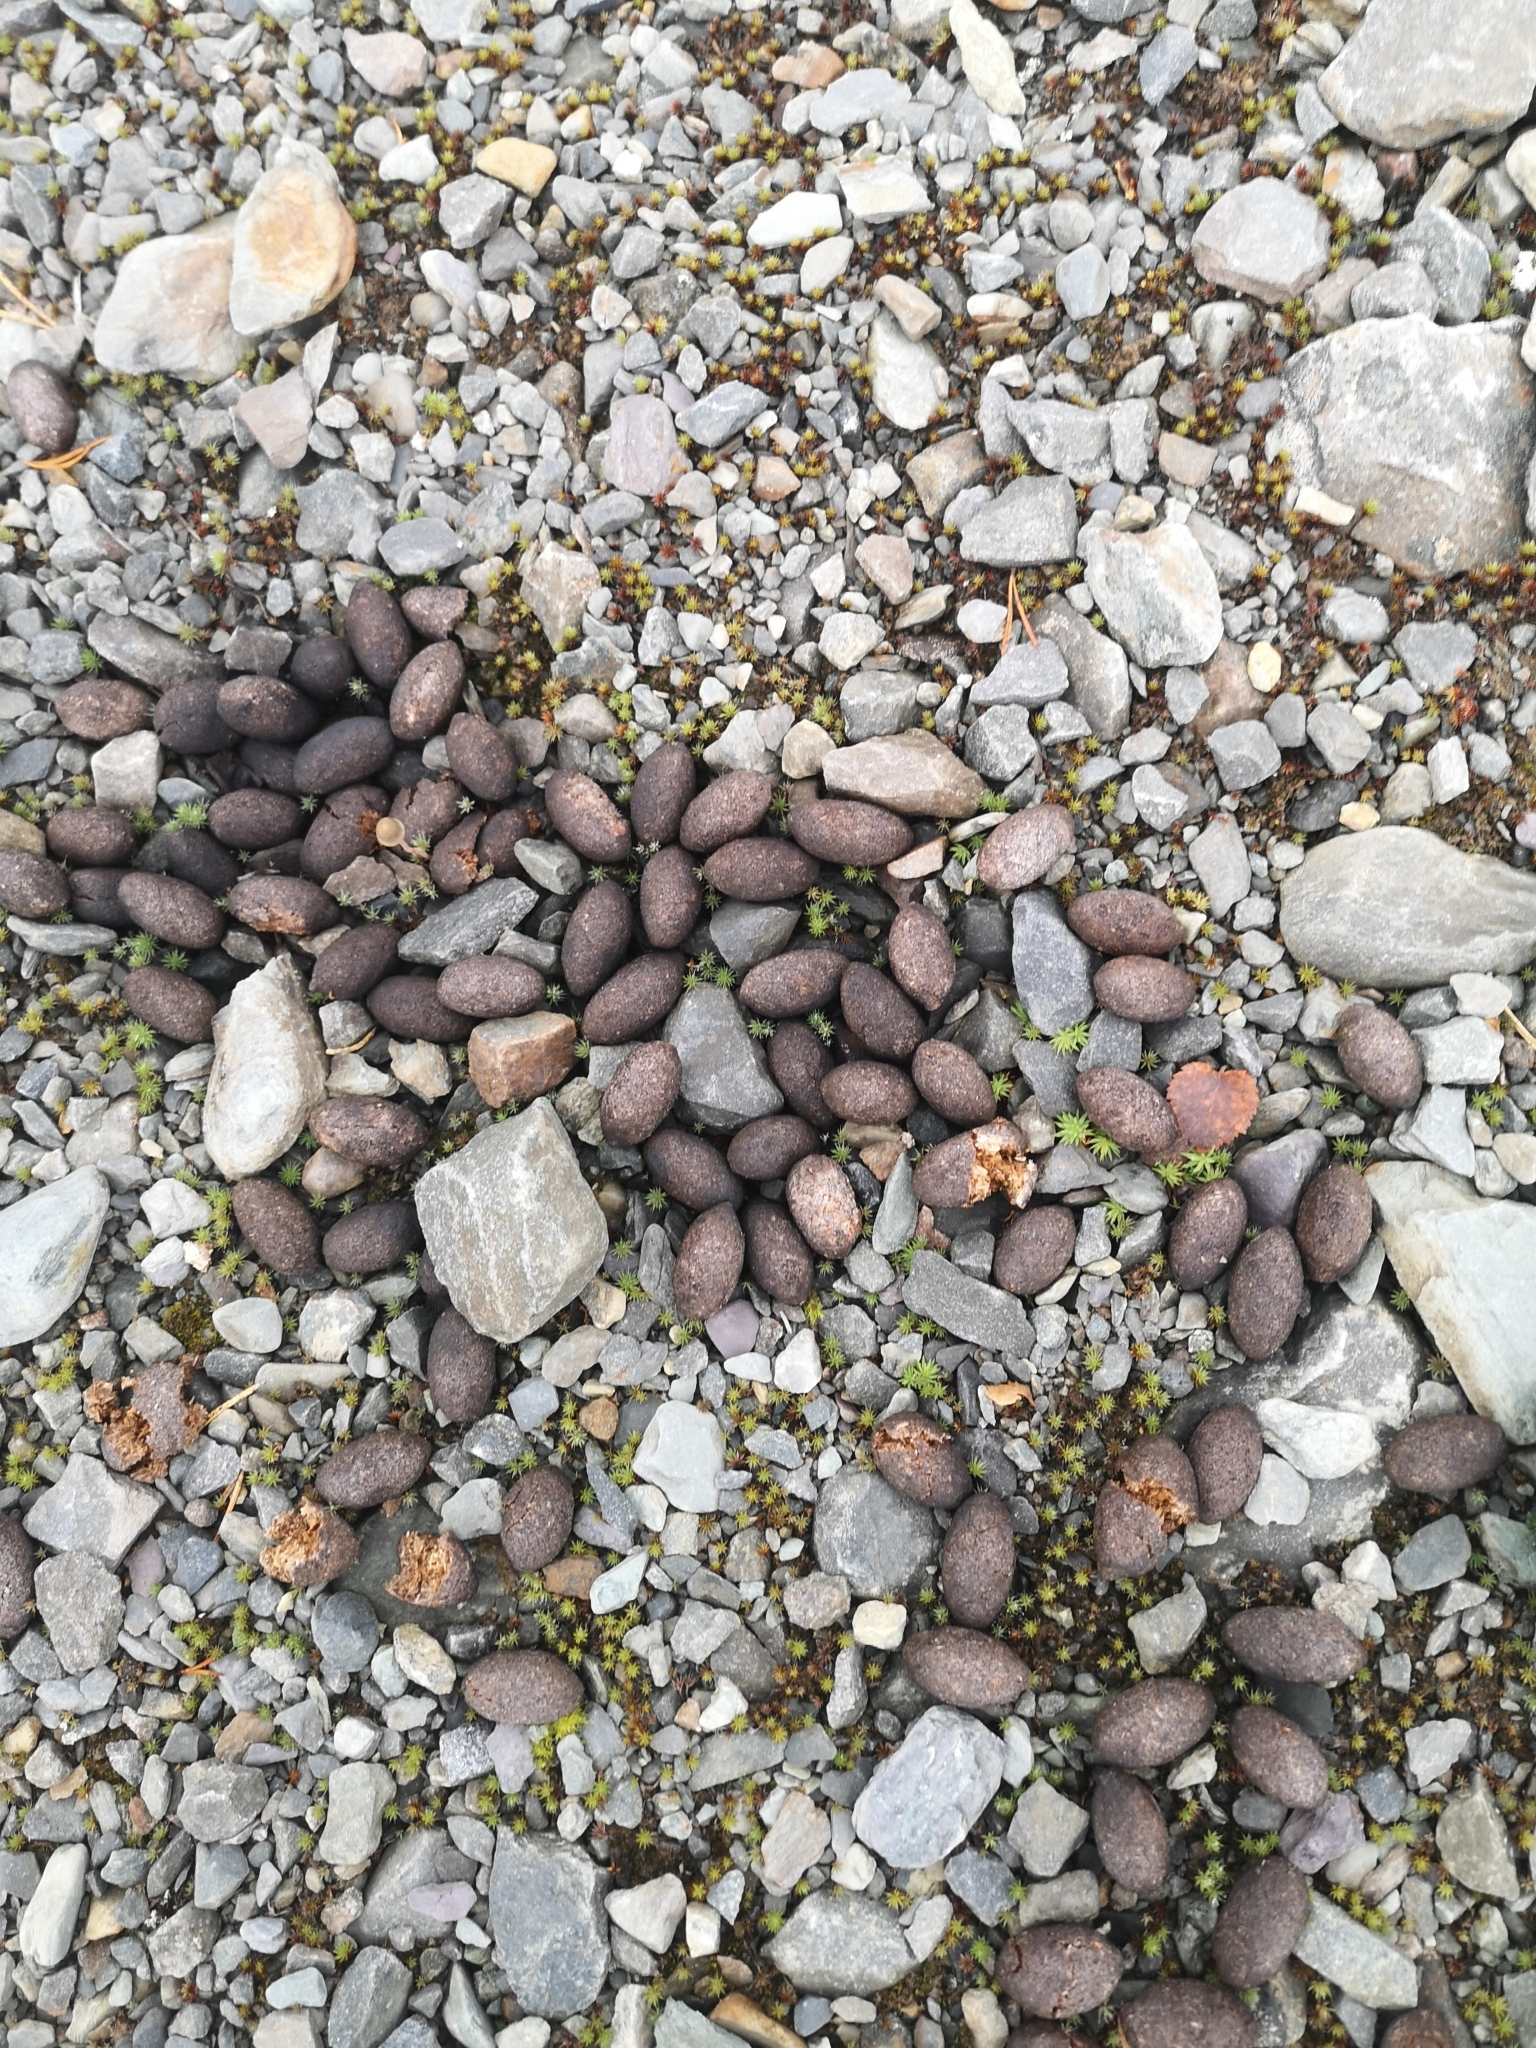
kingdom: Animalia
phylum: Chordata
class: Mammalia
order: Artiodactyla
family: Cervidae
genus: Alces
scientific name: Alces alces
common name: Moose
